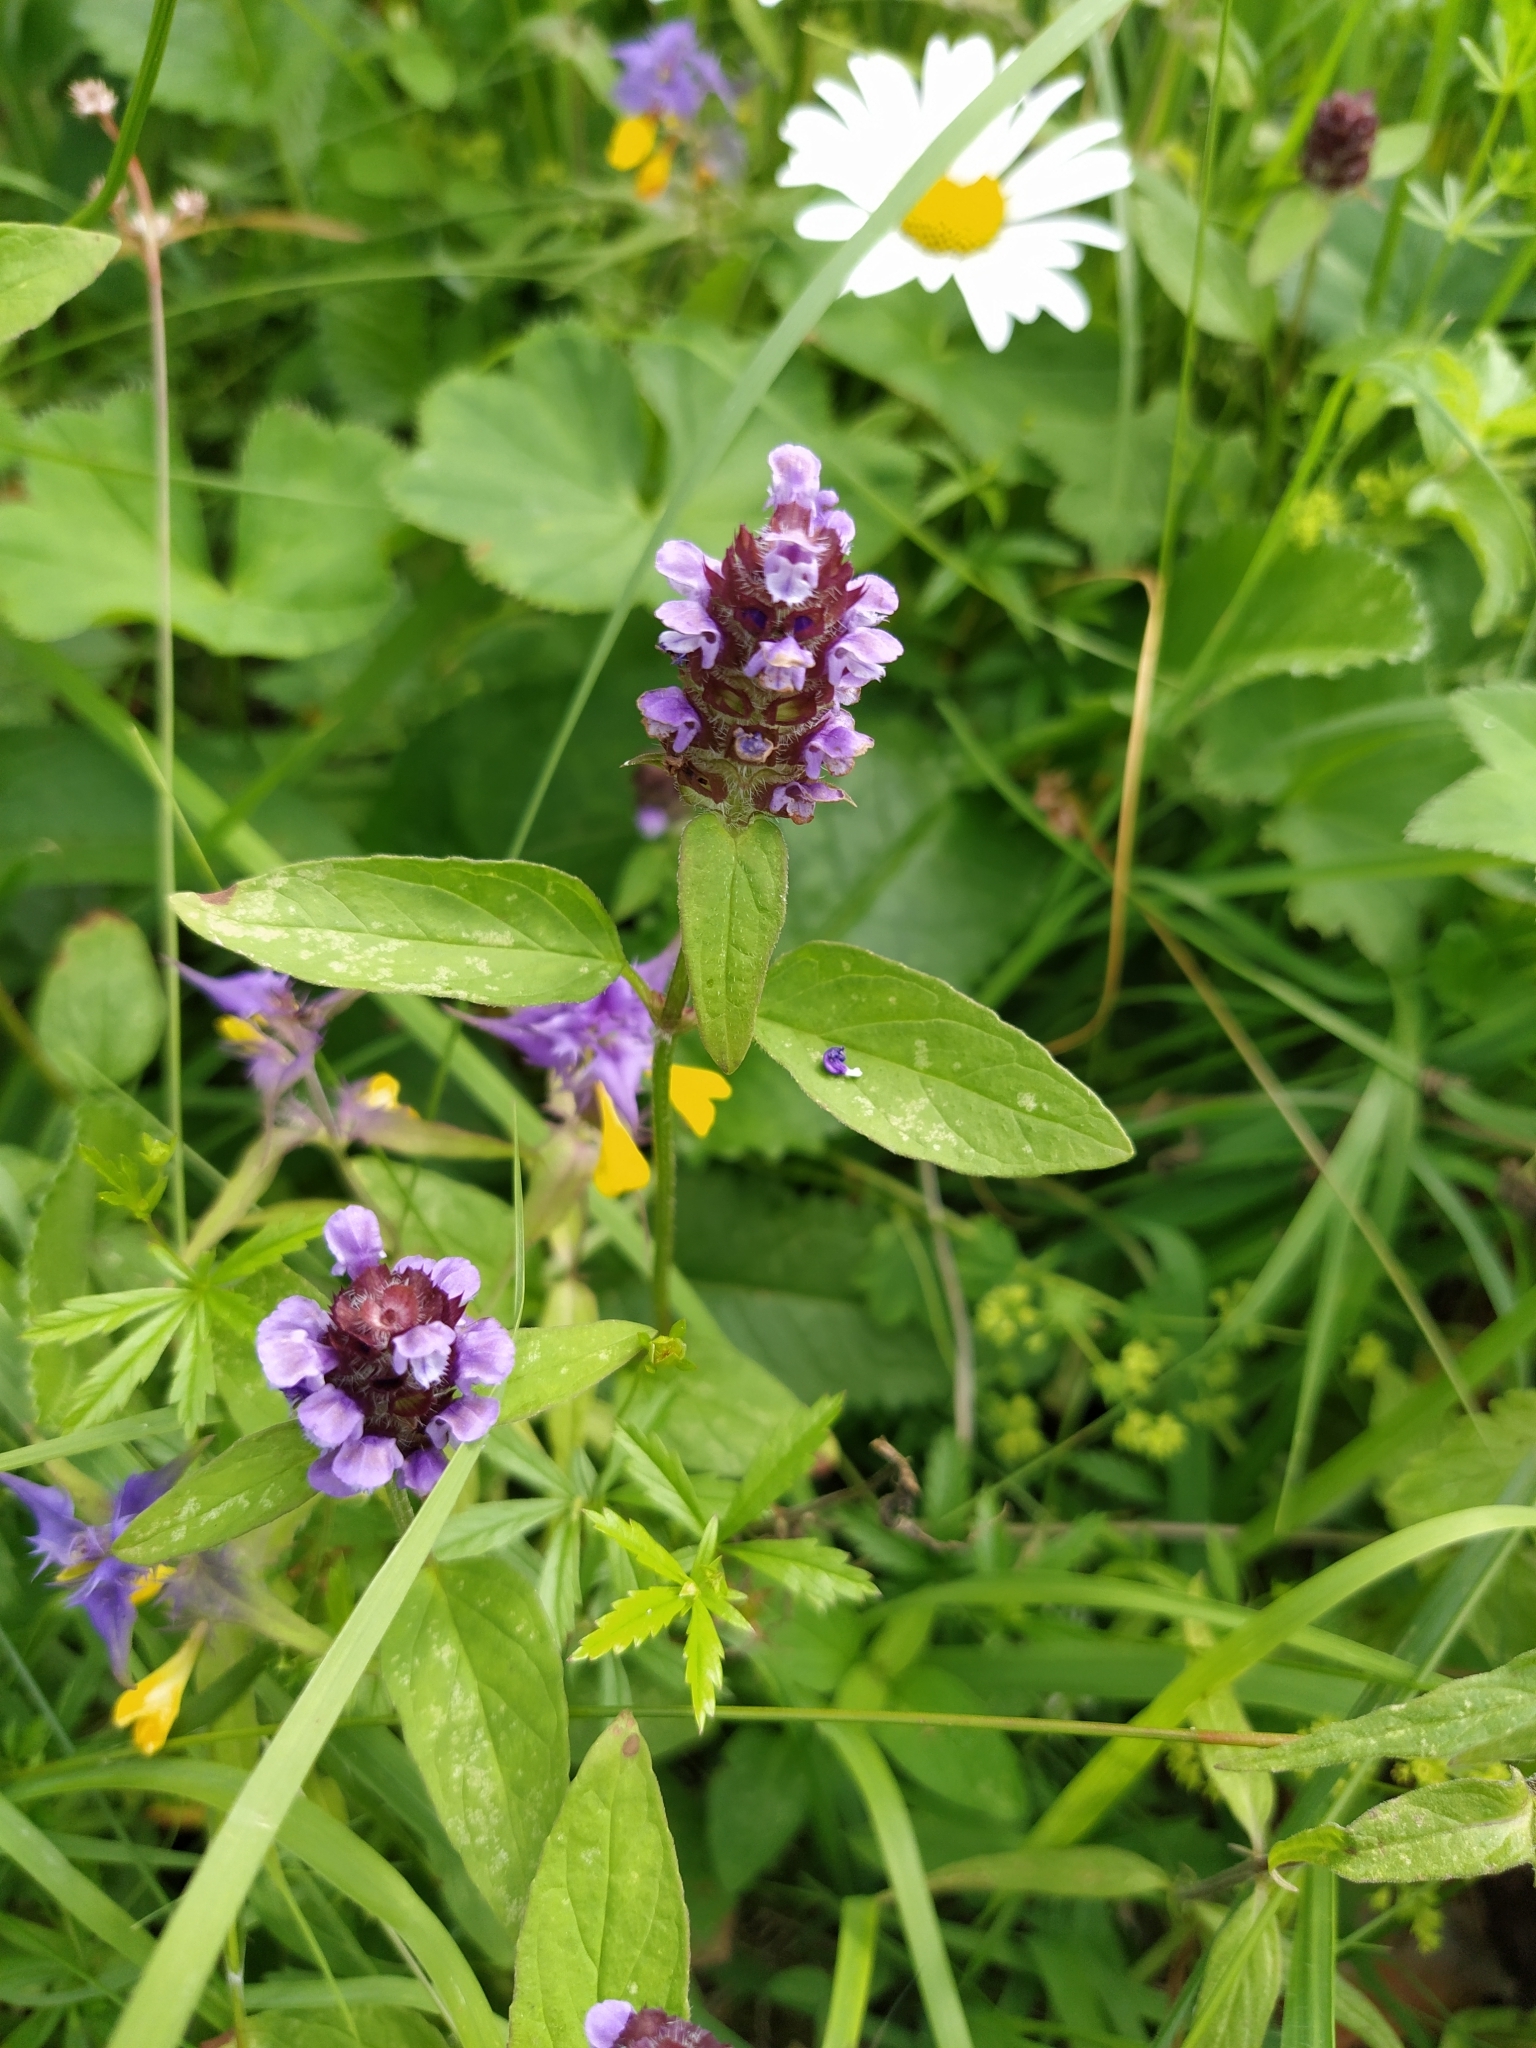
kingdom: Plantae
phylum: Tracheophyta
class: Magnoliopsida
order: Lamiales
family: Lamiaceae
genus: Prunella
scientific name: Prunella vulgaris
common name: Heal-all
